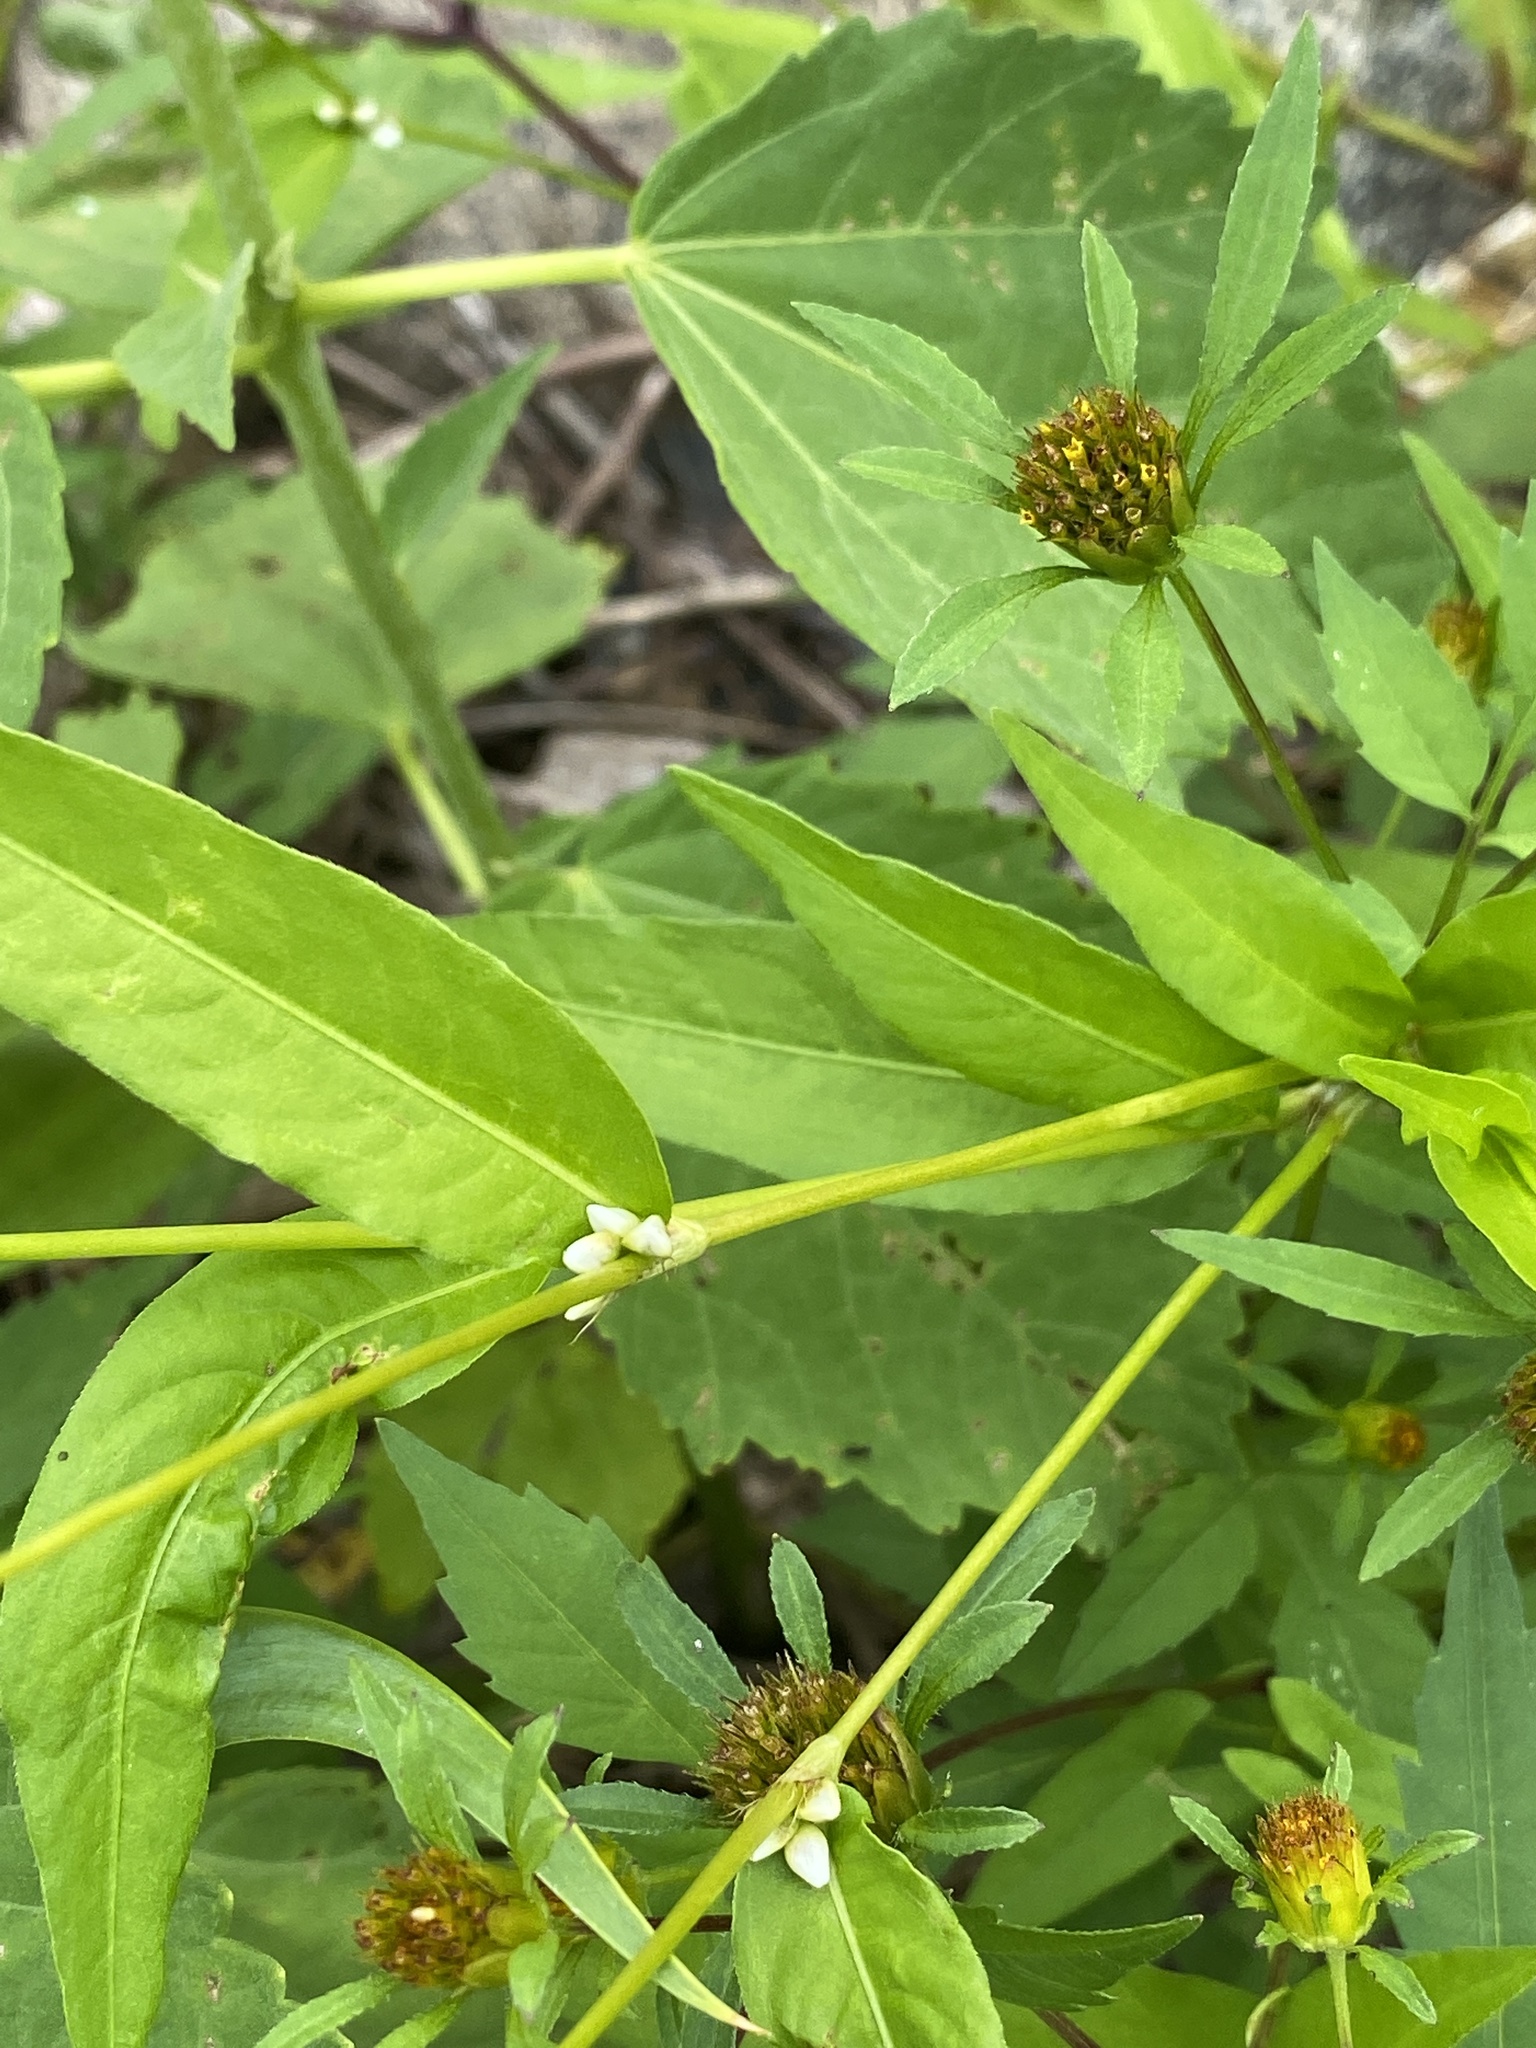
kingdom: Plantae
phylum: Tracheophyta
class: Magnoliopsida
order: Caryophyllales
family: Polygonaceae
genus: Persicaria
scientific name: Persicaria punctata
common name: Dotted smartweed
